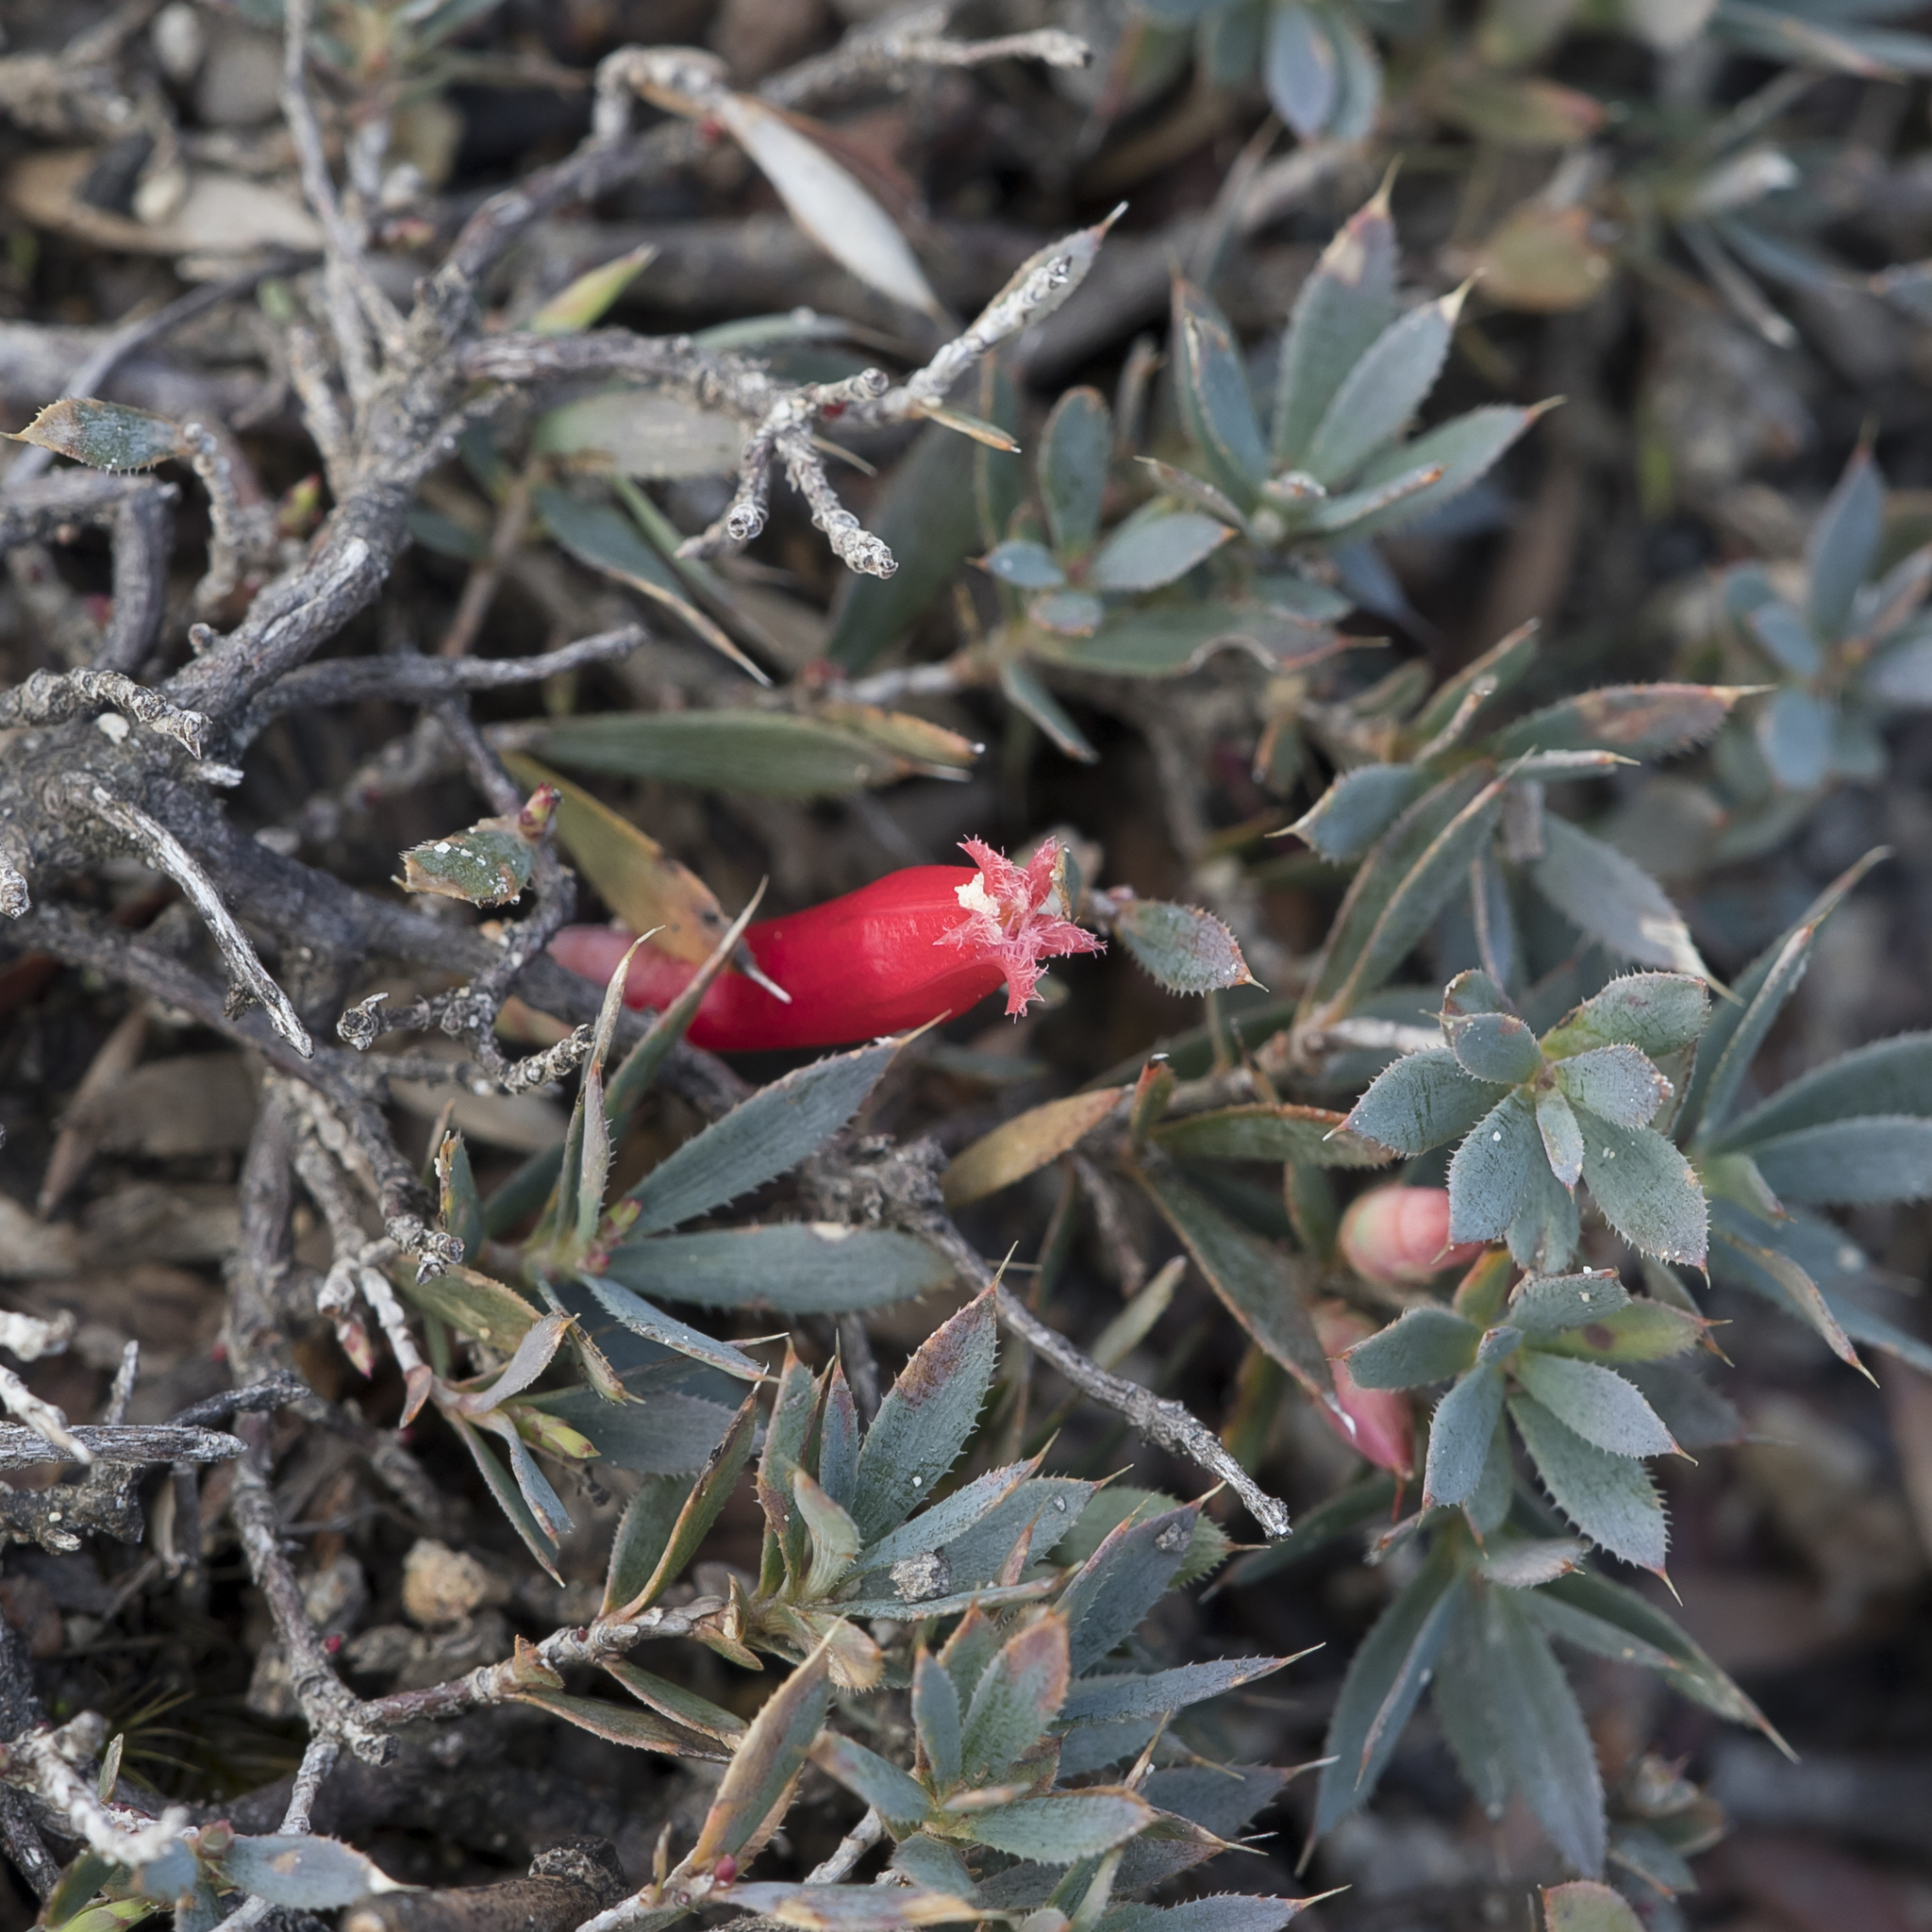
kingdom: Plantae
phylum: Tracheophyta
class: Magnoliopsida
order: Ericales
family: Ericaceae
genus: Styphelia
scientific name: Styphelia humifusa
